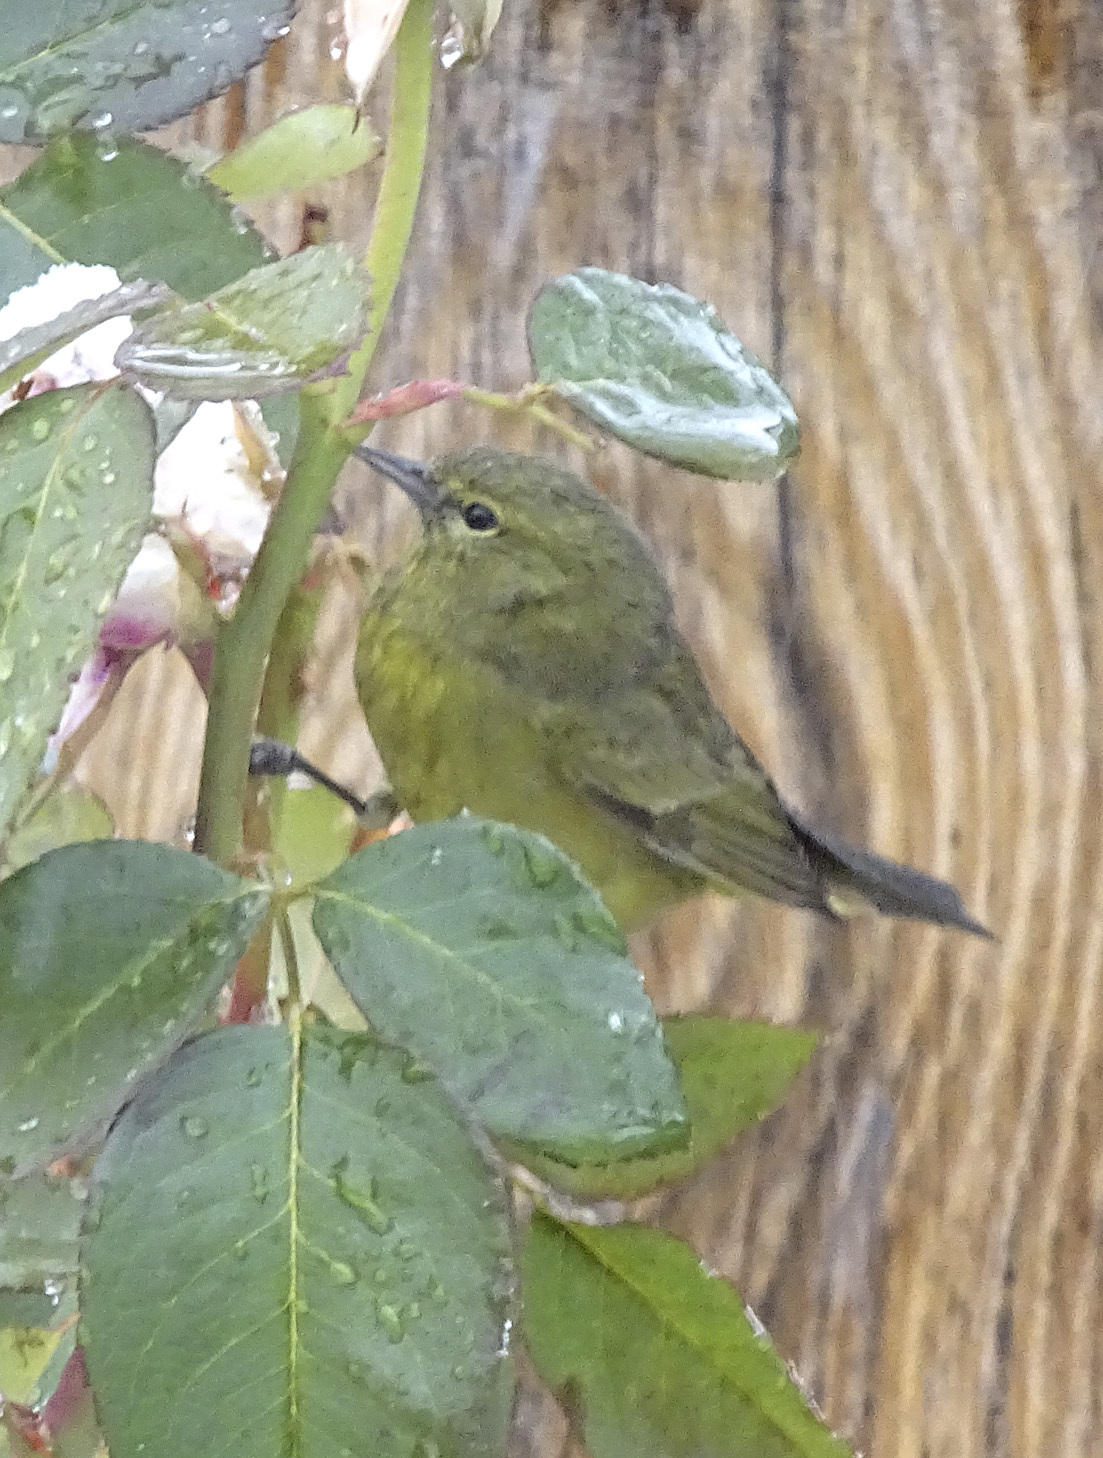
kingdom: Animalia
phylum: Chordata
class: Aves
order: Passeriformes
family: Parulidae
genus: Leiothlypis
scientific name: Leiothlypis celata
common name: Orange-crowned warbler
